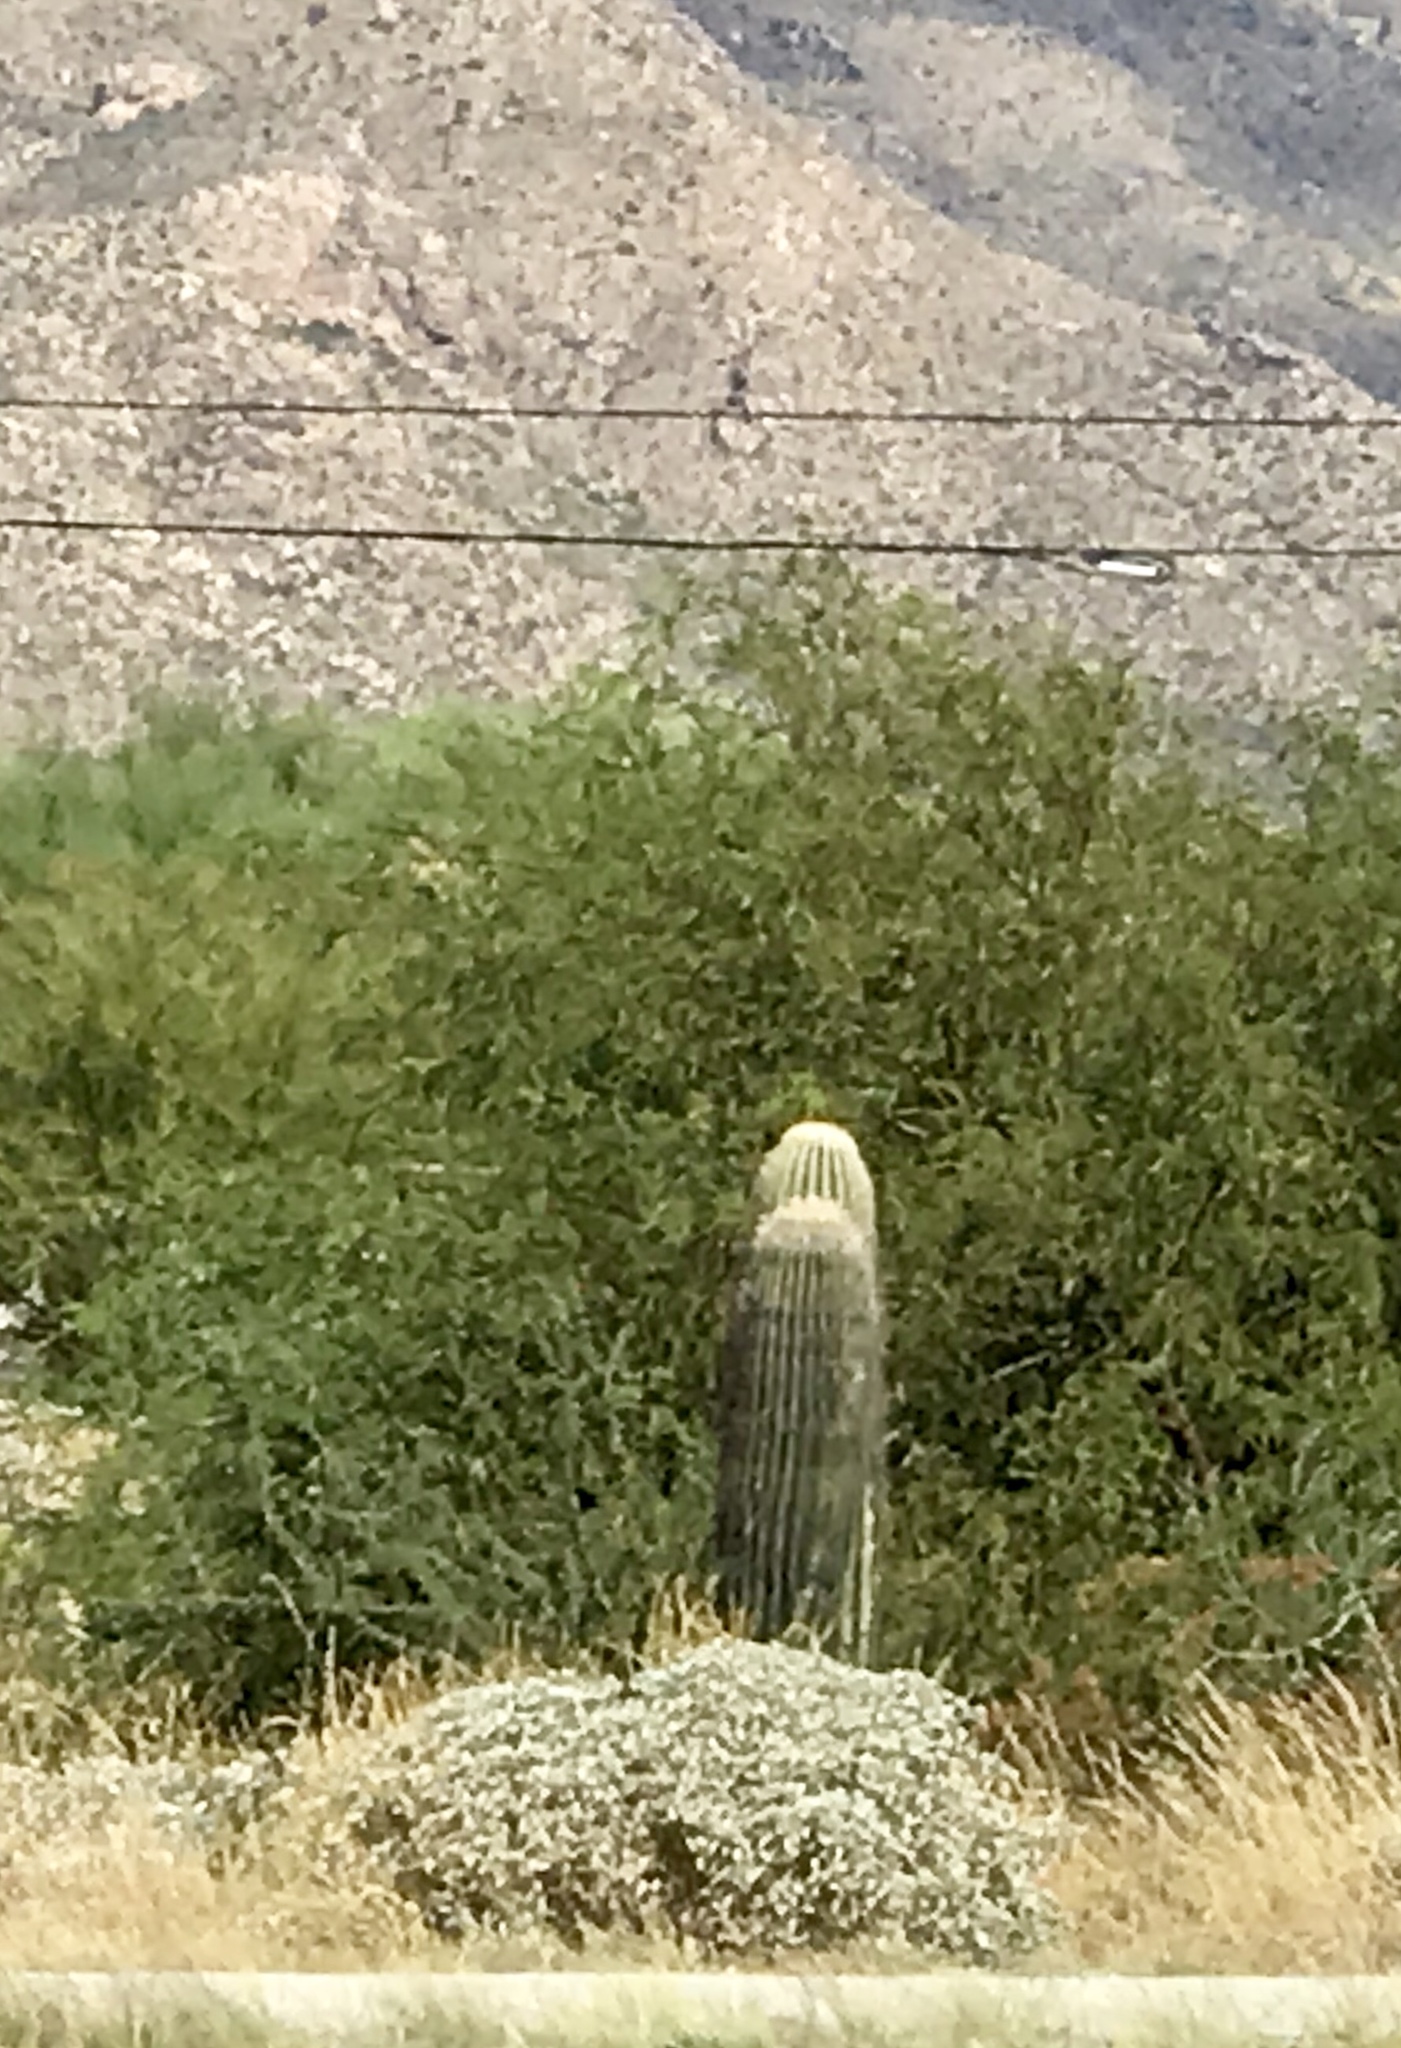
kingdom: Plantae
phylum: Tracheophyta
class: Magnoliopsida
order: Caryophyllales
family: Cactaceae
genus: Carnegiea
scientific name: Carnegiea gigantea
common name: Saguaro
